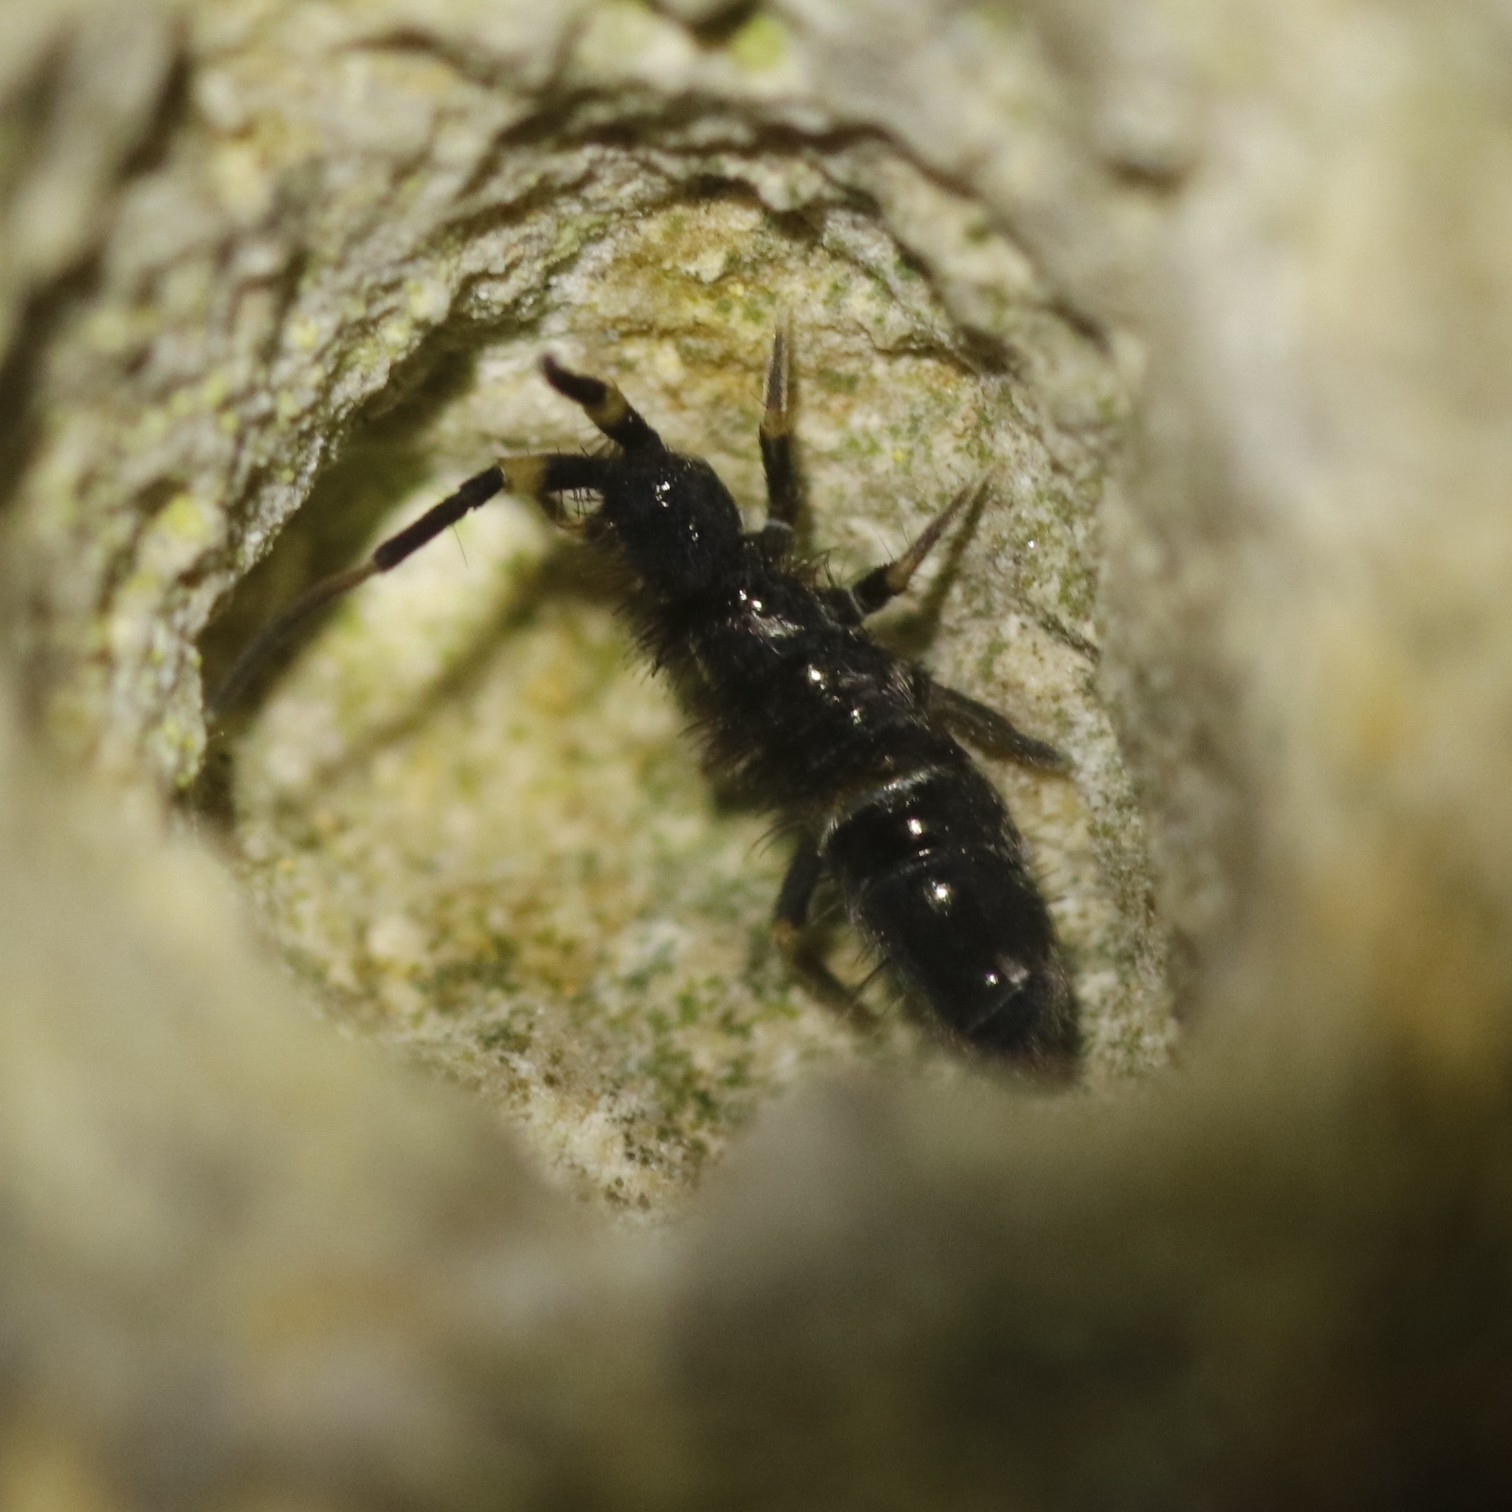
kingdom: Animalia
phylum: Arthropoda
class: Collembola
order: Entomobryomorpha
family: Orchesellidae
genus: Orchesella
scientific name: Orchesella cincta
